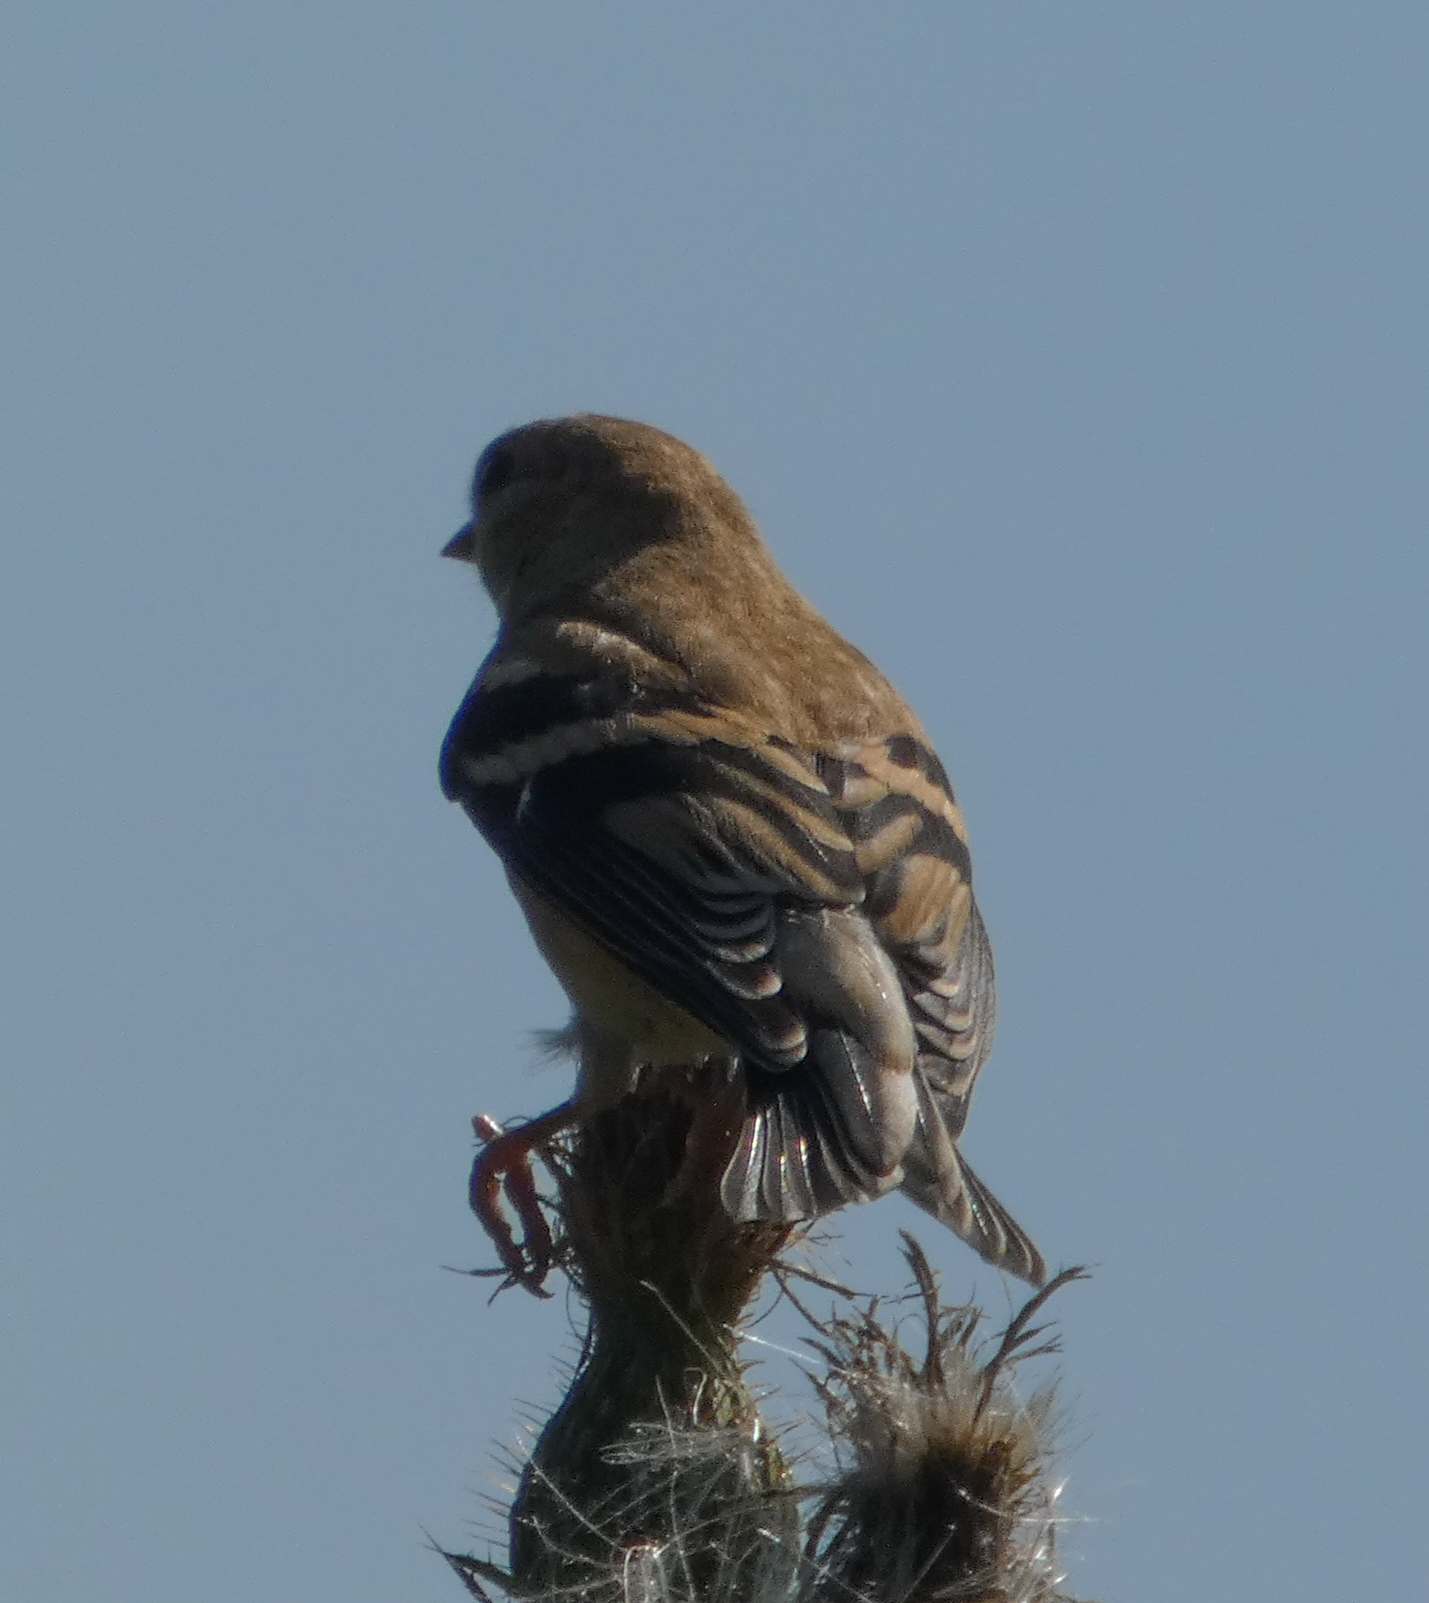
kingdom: Animalia
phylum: Chordata
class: Aves
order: Passeriformes
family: Fringillidae
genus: Spinus
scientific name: Spinus tristis
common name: American goldfinch
